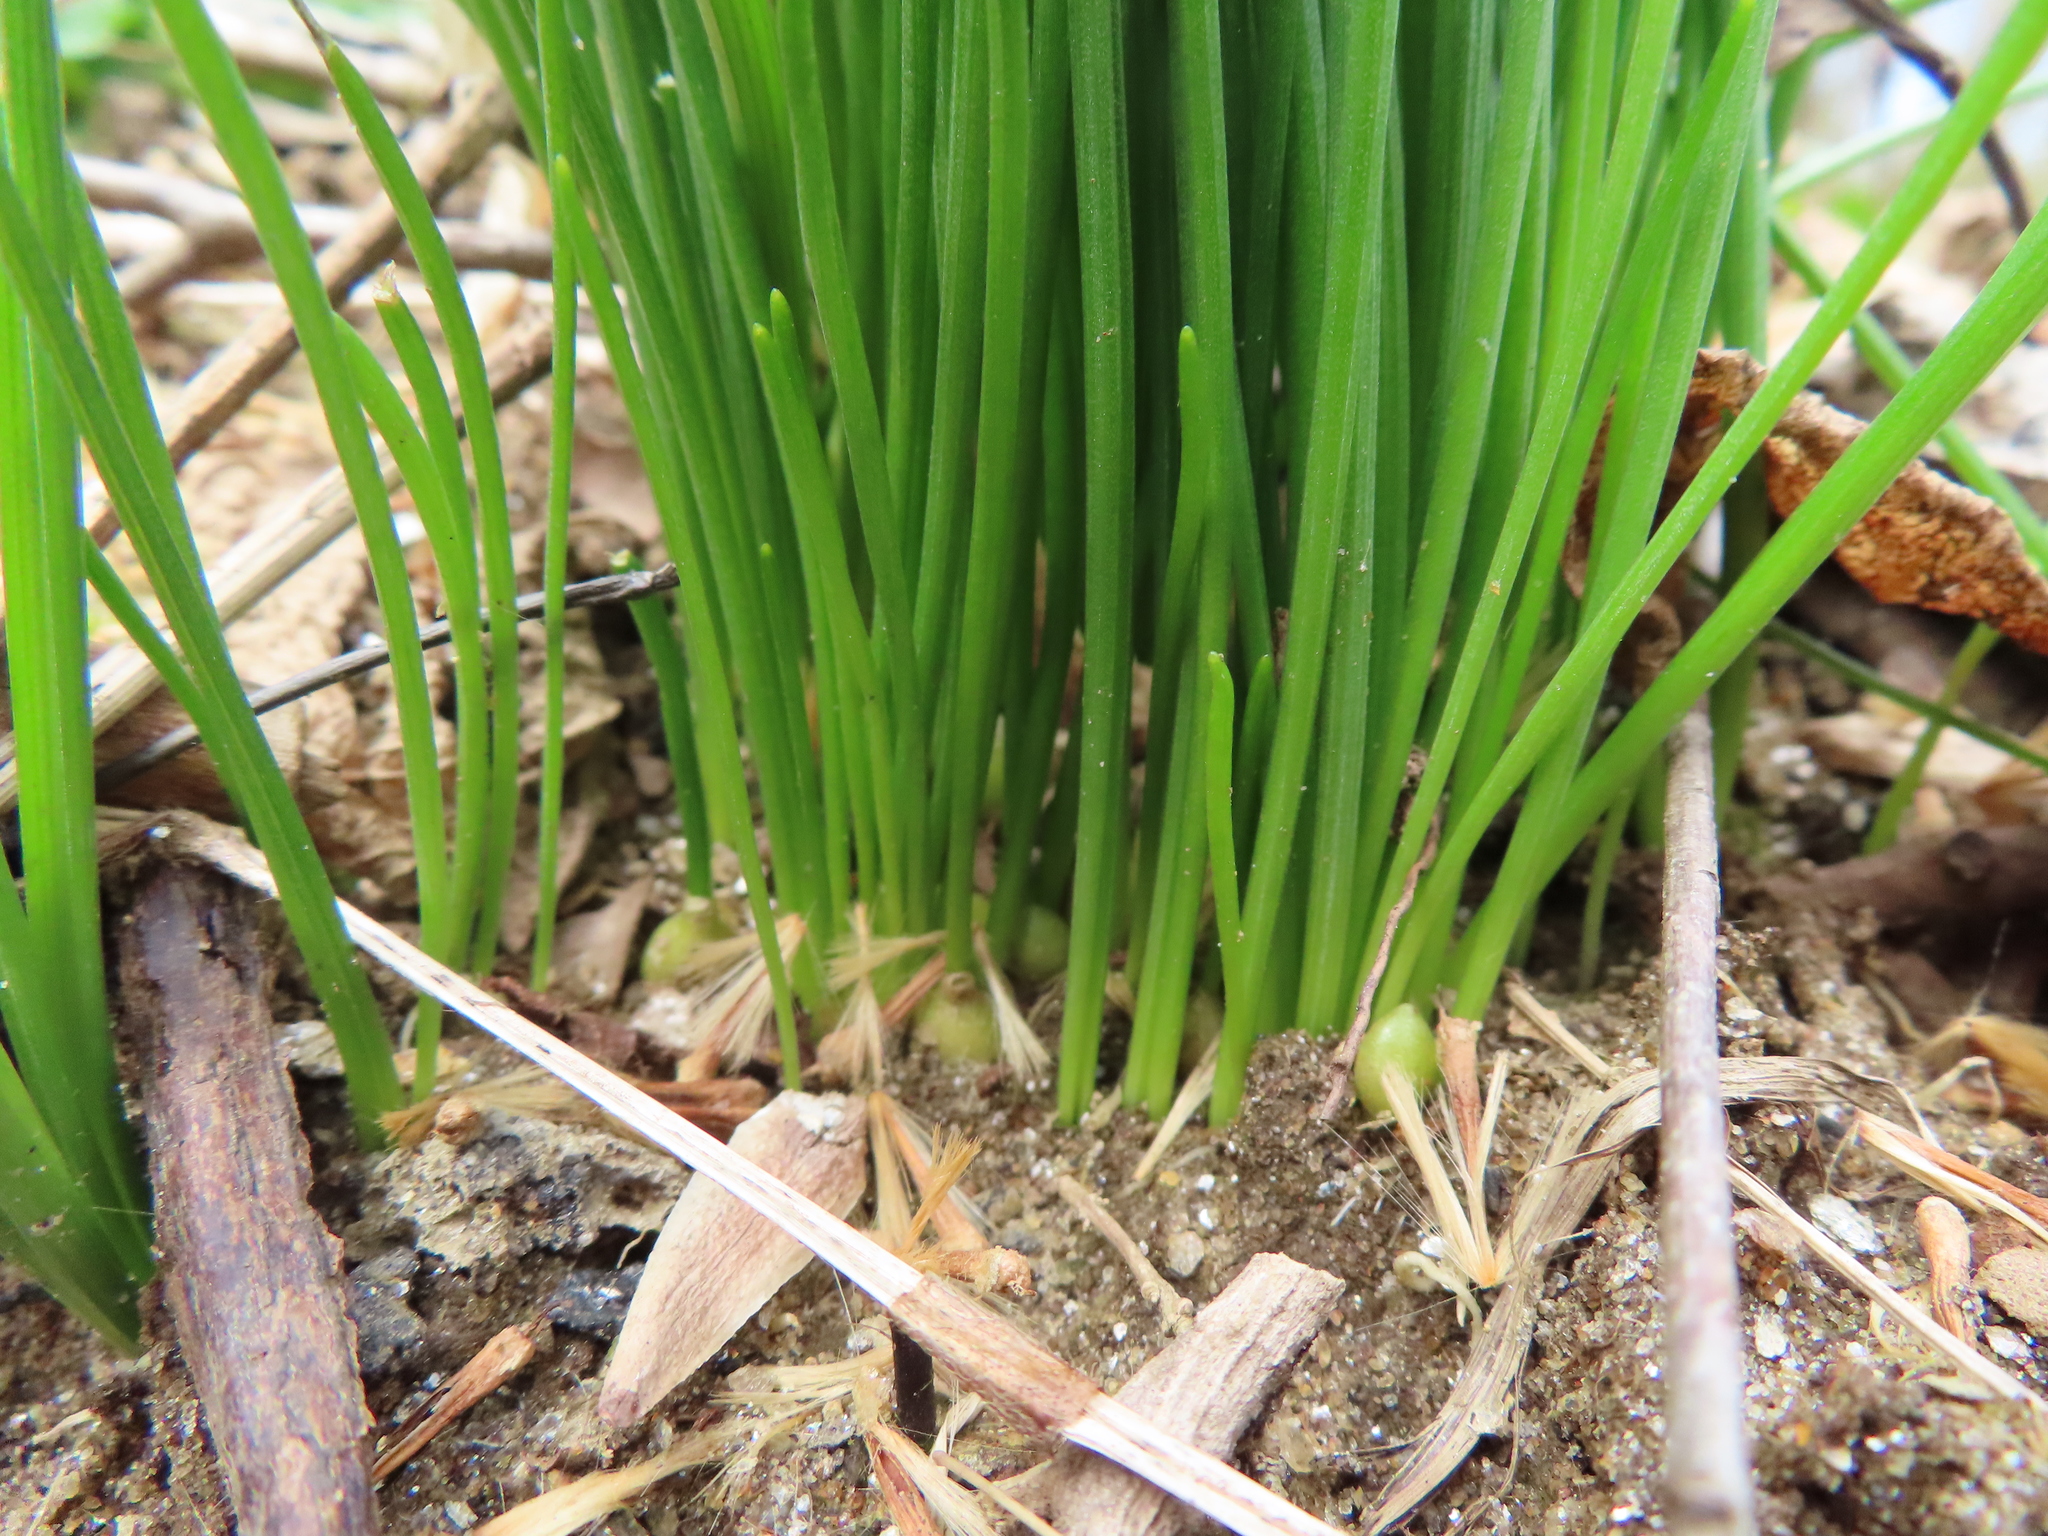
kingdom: Plantae
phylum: Tracheophyta
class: Liliopsida
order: Asparagales
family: Asparagaceae
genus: Ornithogalum
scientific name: Ornithogalum umbellatum
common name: Garden star-of-bethlehem
